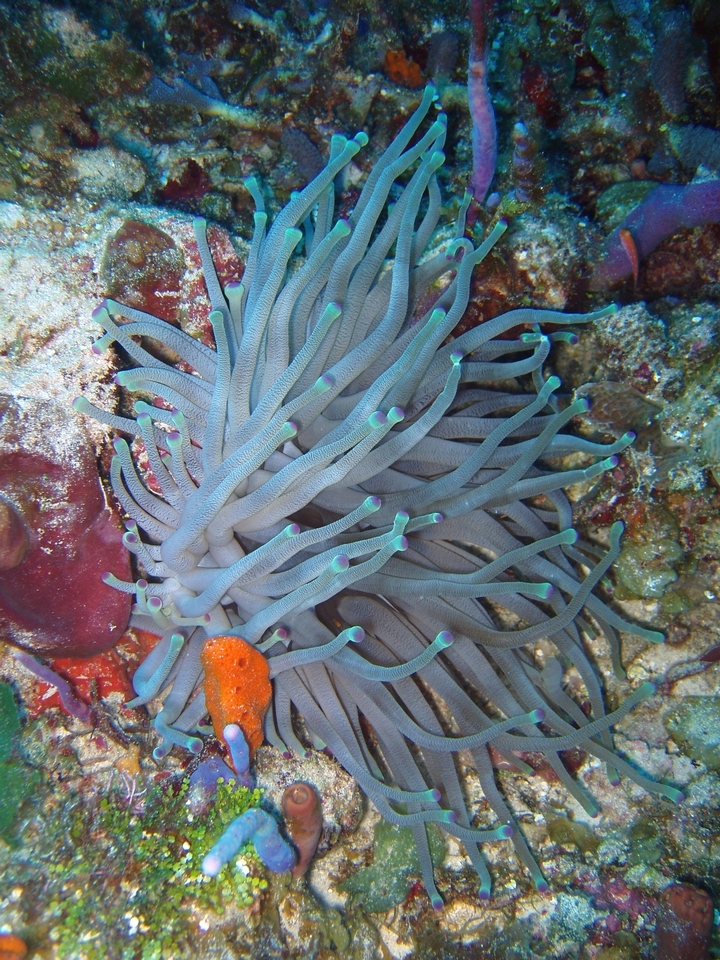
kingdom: Animalia
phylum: Cnidaria
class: Anthozoa
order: Actiniaria
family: Actiniidae
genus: Condylactis
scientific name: Condylactis gigantea
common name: Giant caribbean anemone
